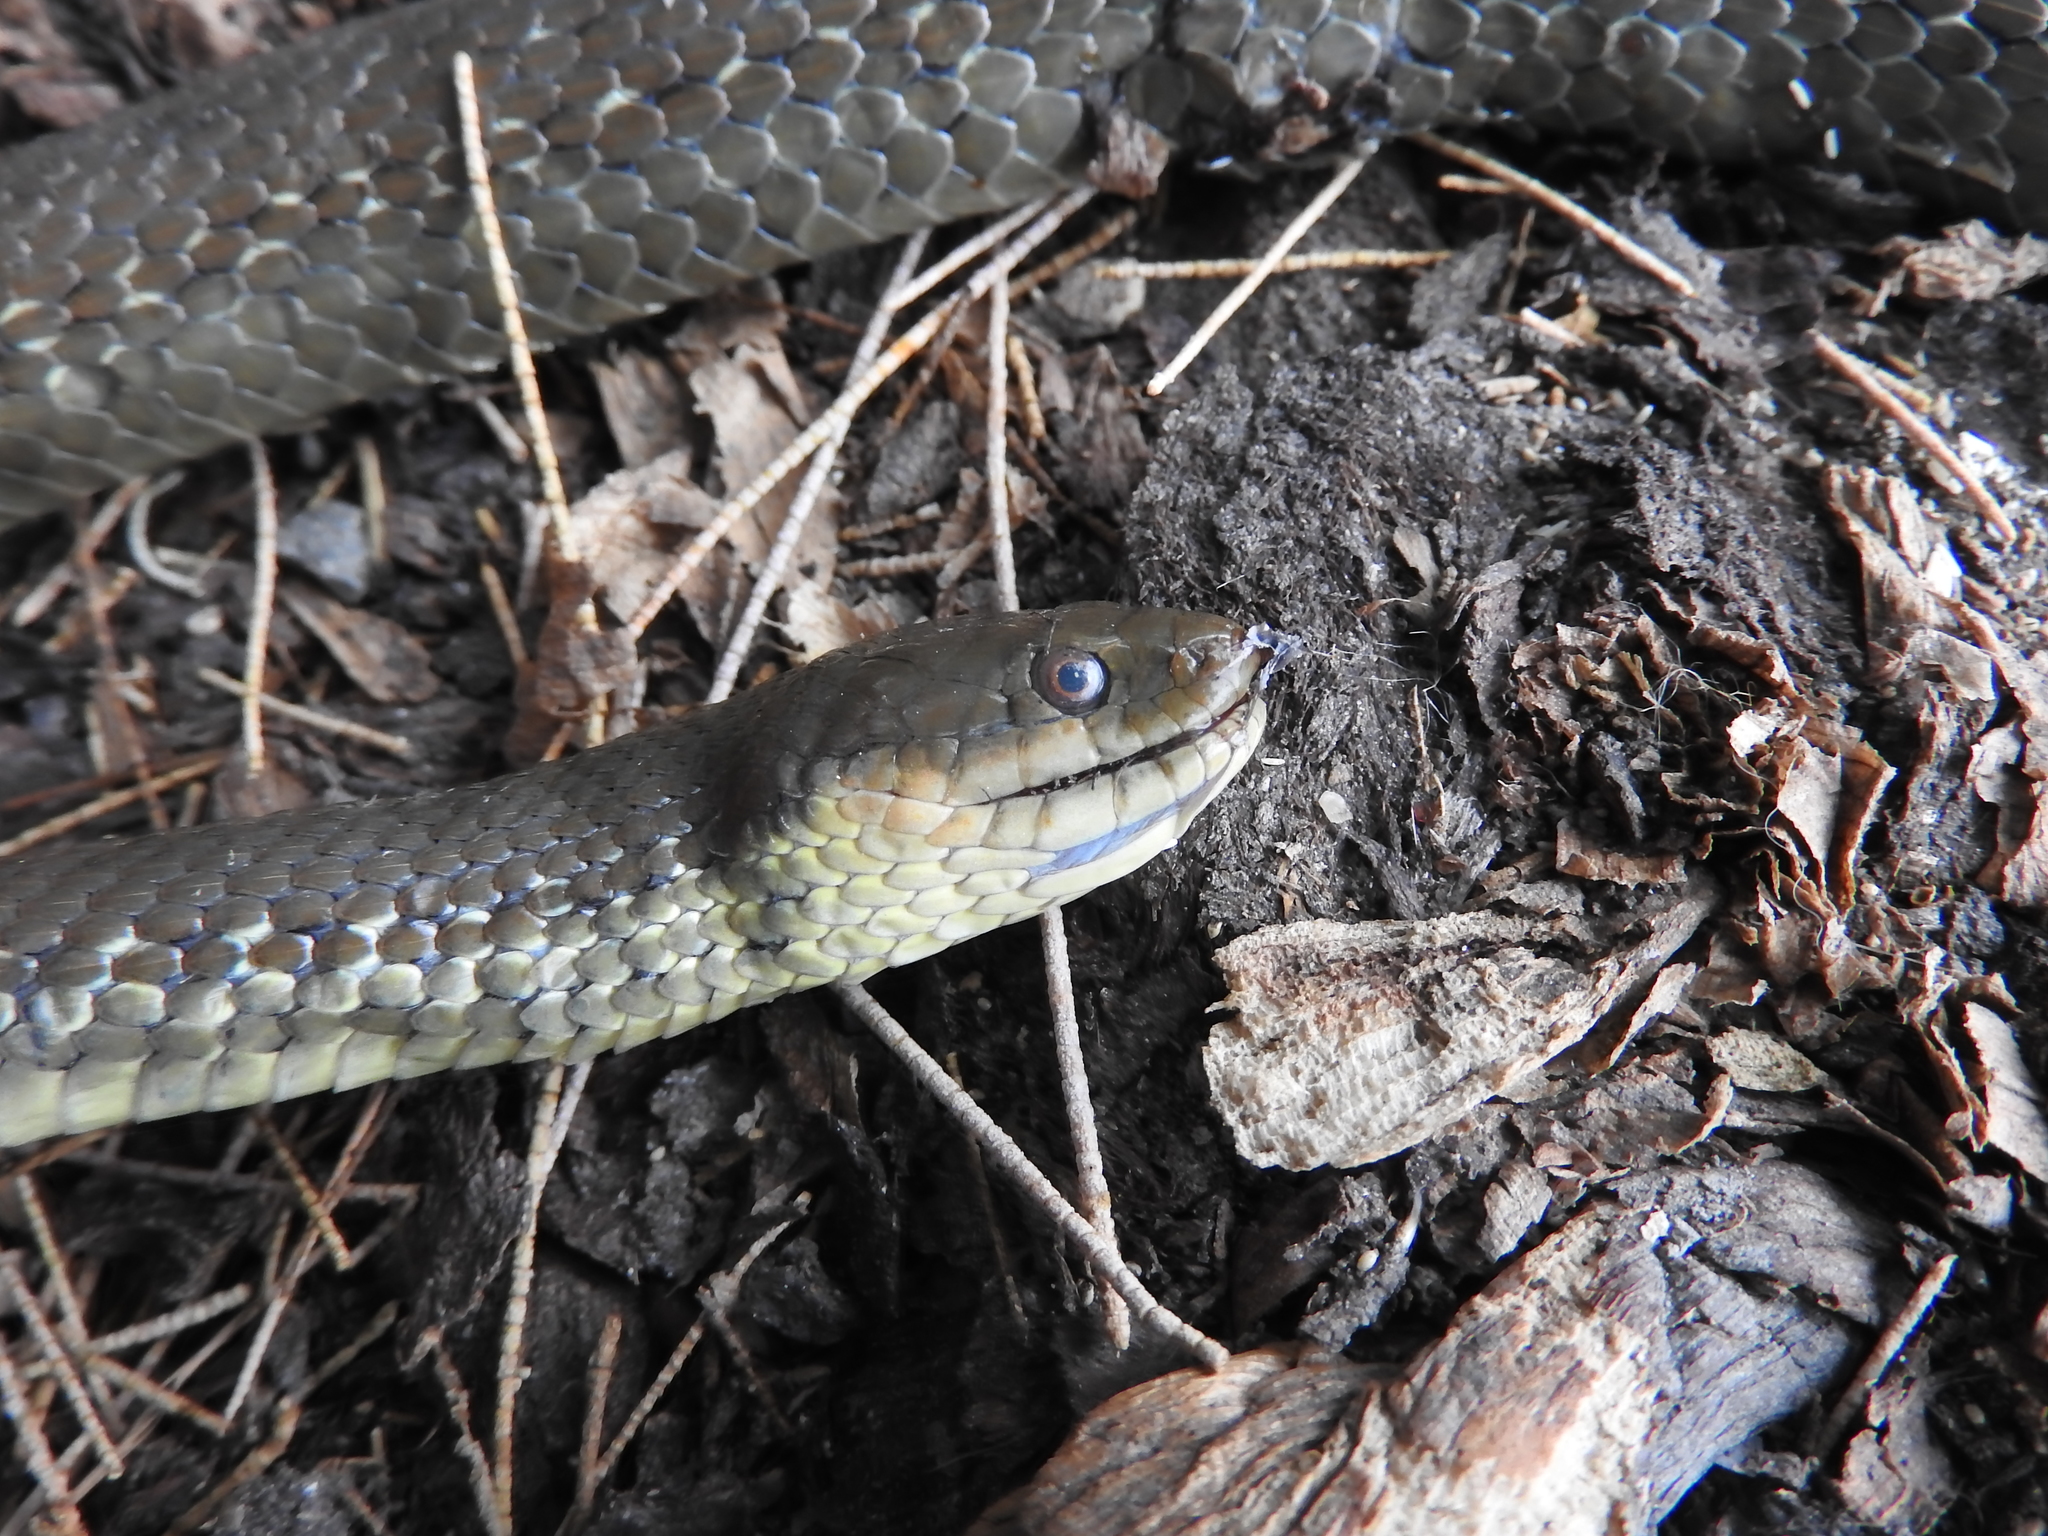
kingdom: Animalia
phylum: Chordata
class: Squamata
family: Colubridae
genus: Thamnophis
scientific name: Thamnophis melanogaster
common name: Blackbelly garter snake
